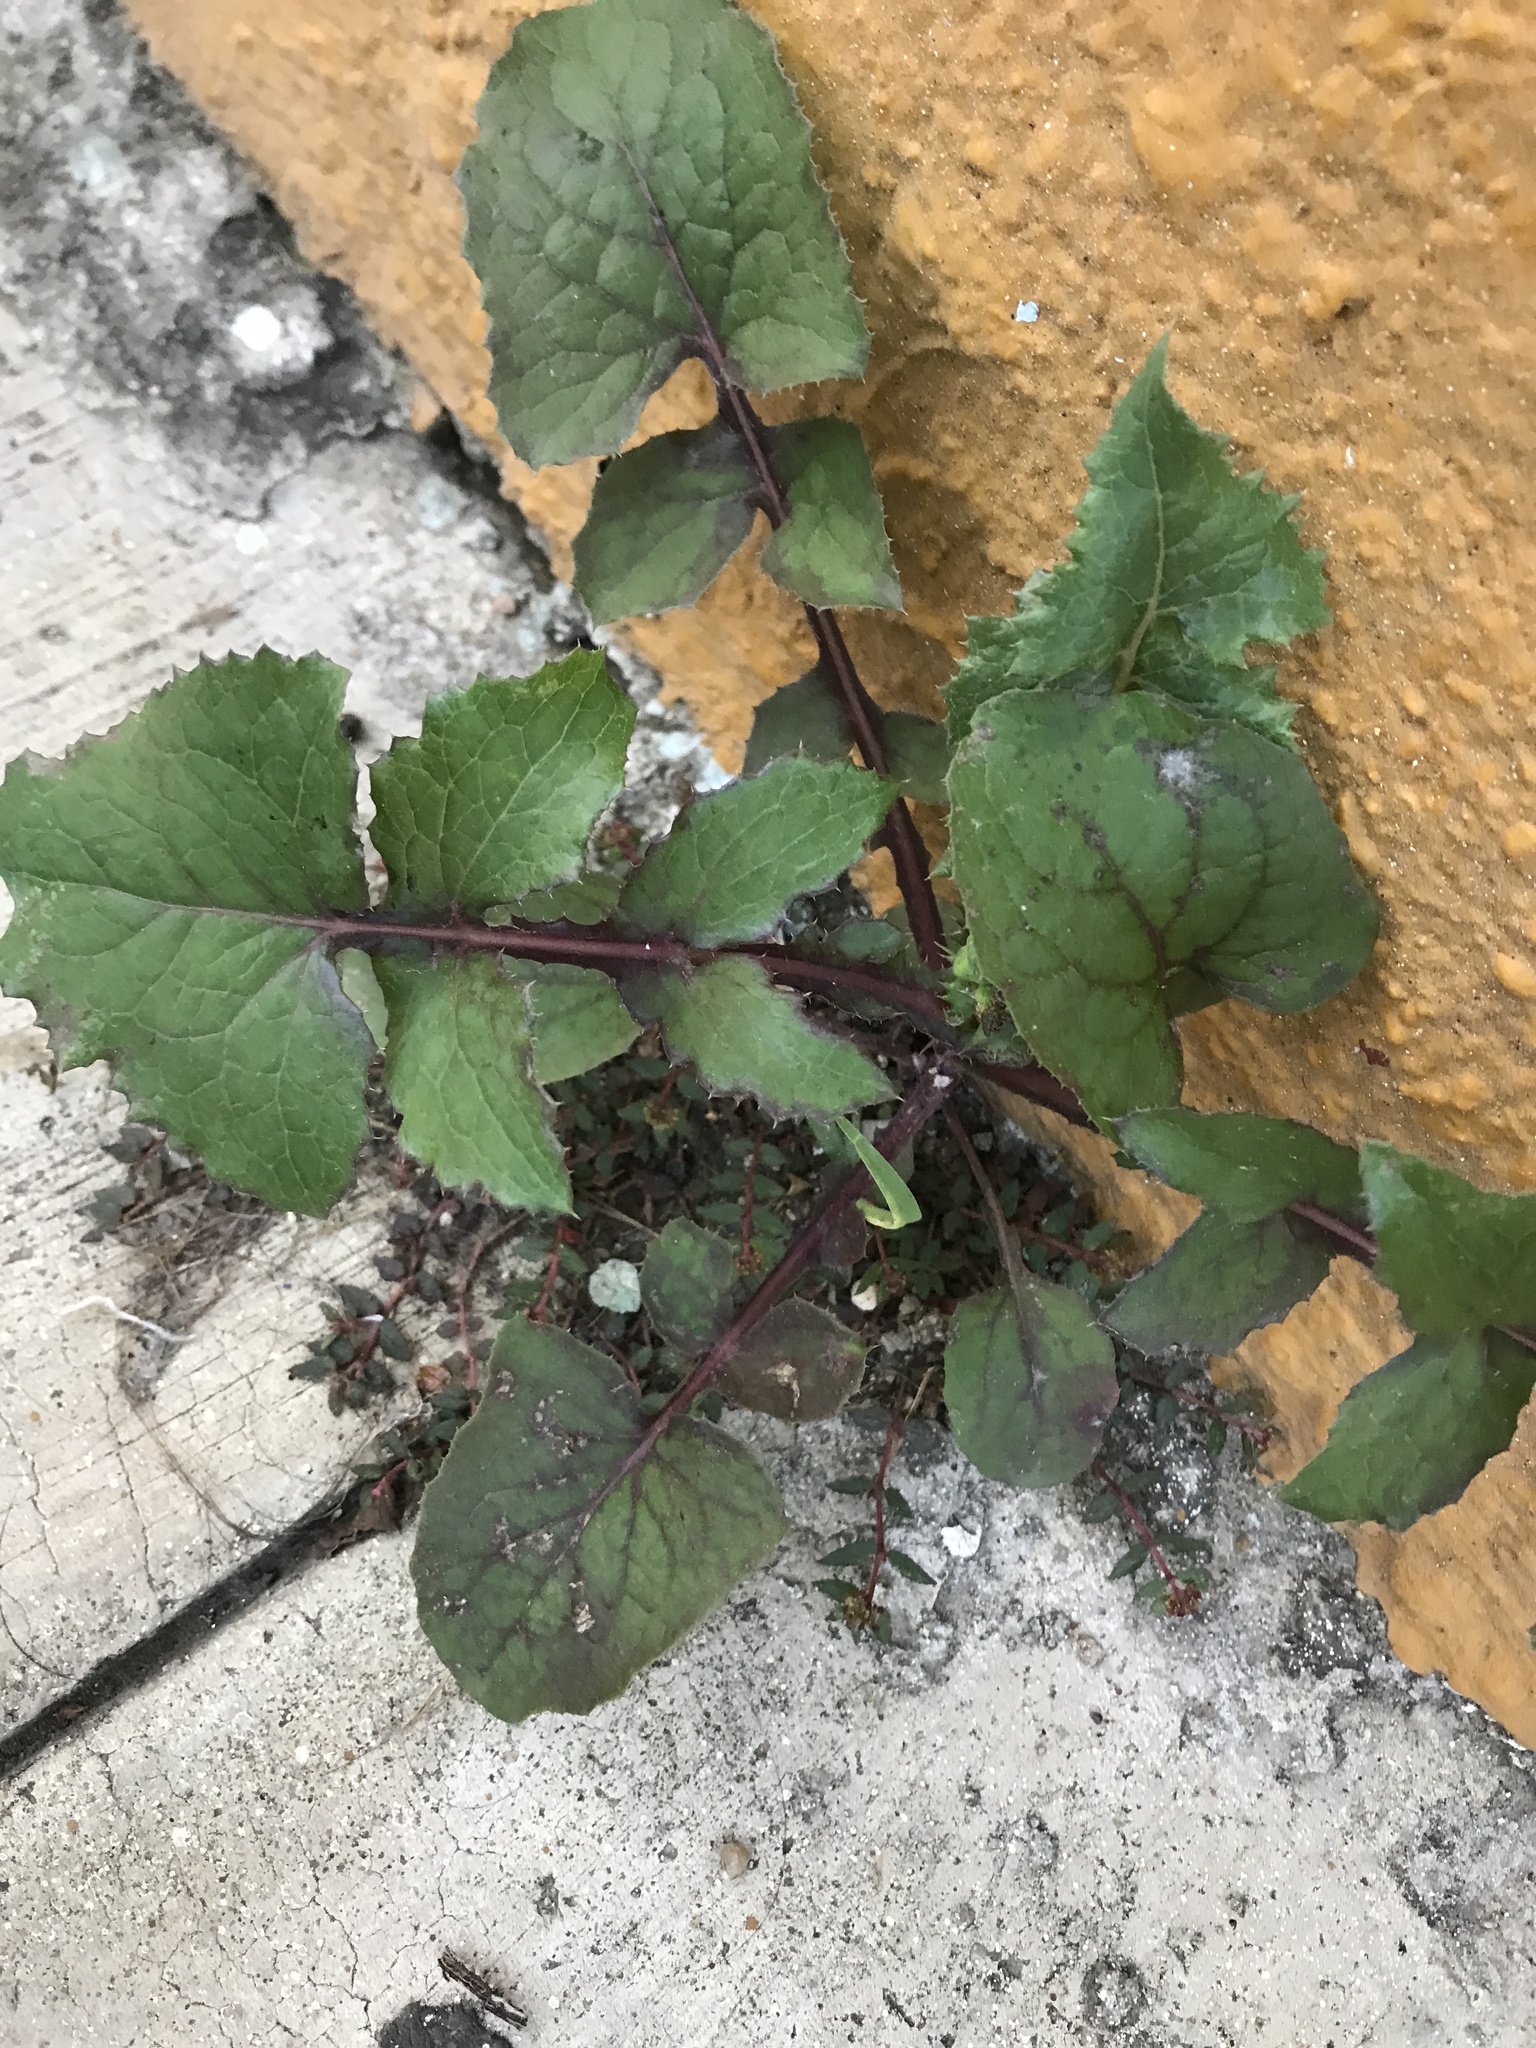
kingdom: Plantae
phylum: Tracheophyta
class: Magnoliopsida
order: Asterales
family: Asteraceae
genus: Sonchus
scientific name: Sonchus oleraceus
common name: Common sowthistle
